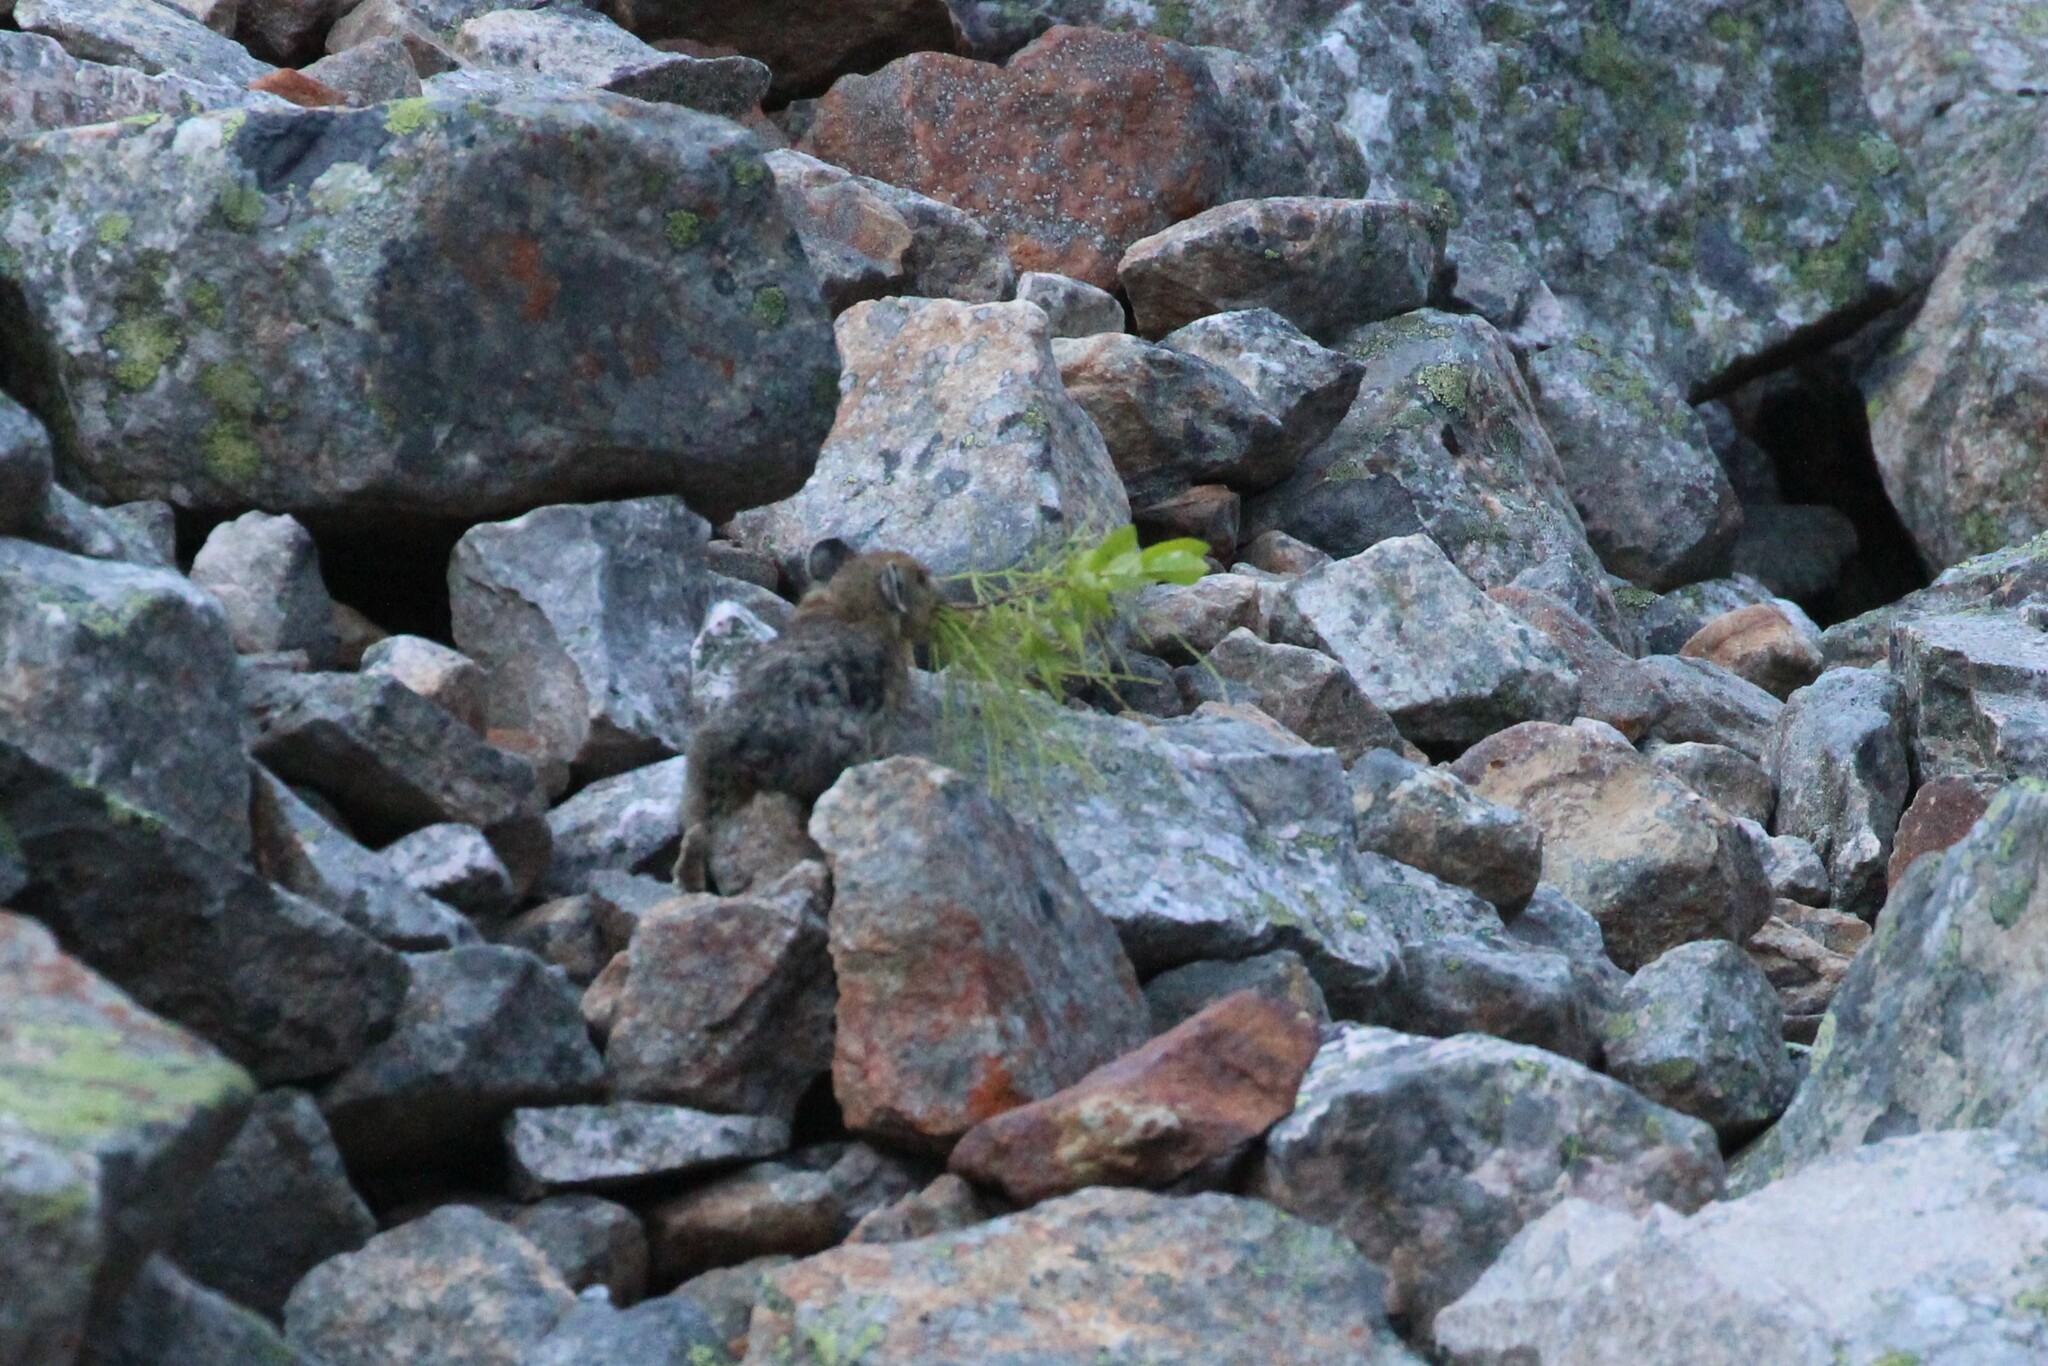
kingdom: Animalia
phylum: Chordata
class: Mammalia
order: Lagomorpha
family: Ochotonidae
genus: Ochotona
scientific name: Ochotona princeps
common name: American pika
